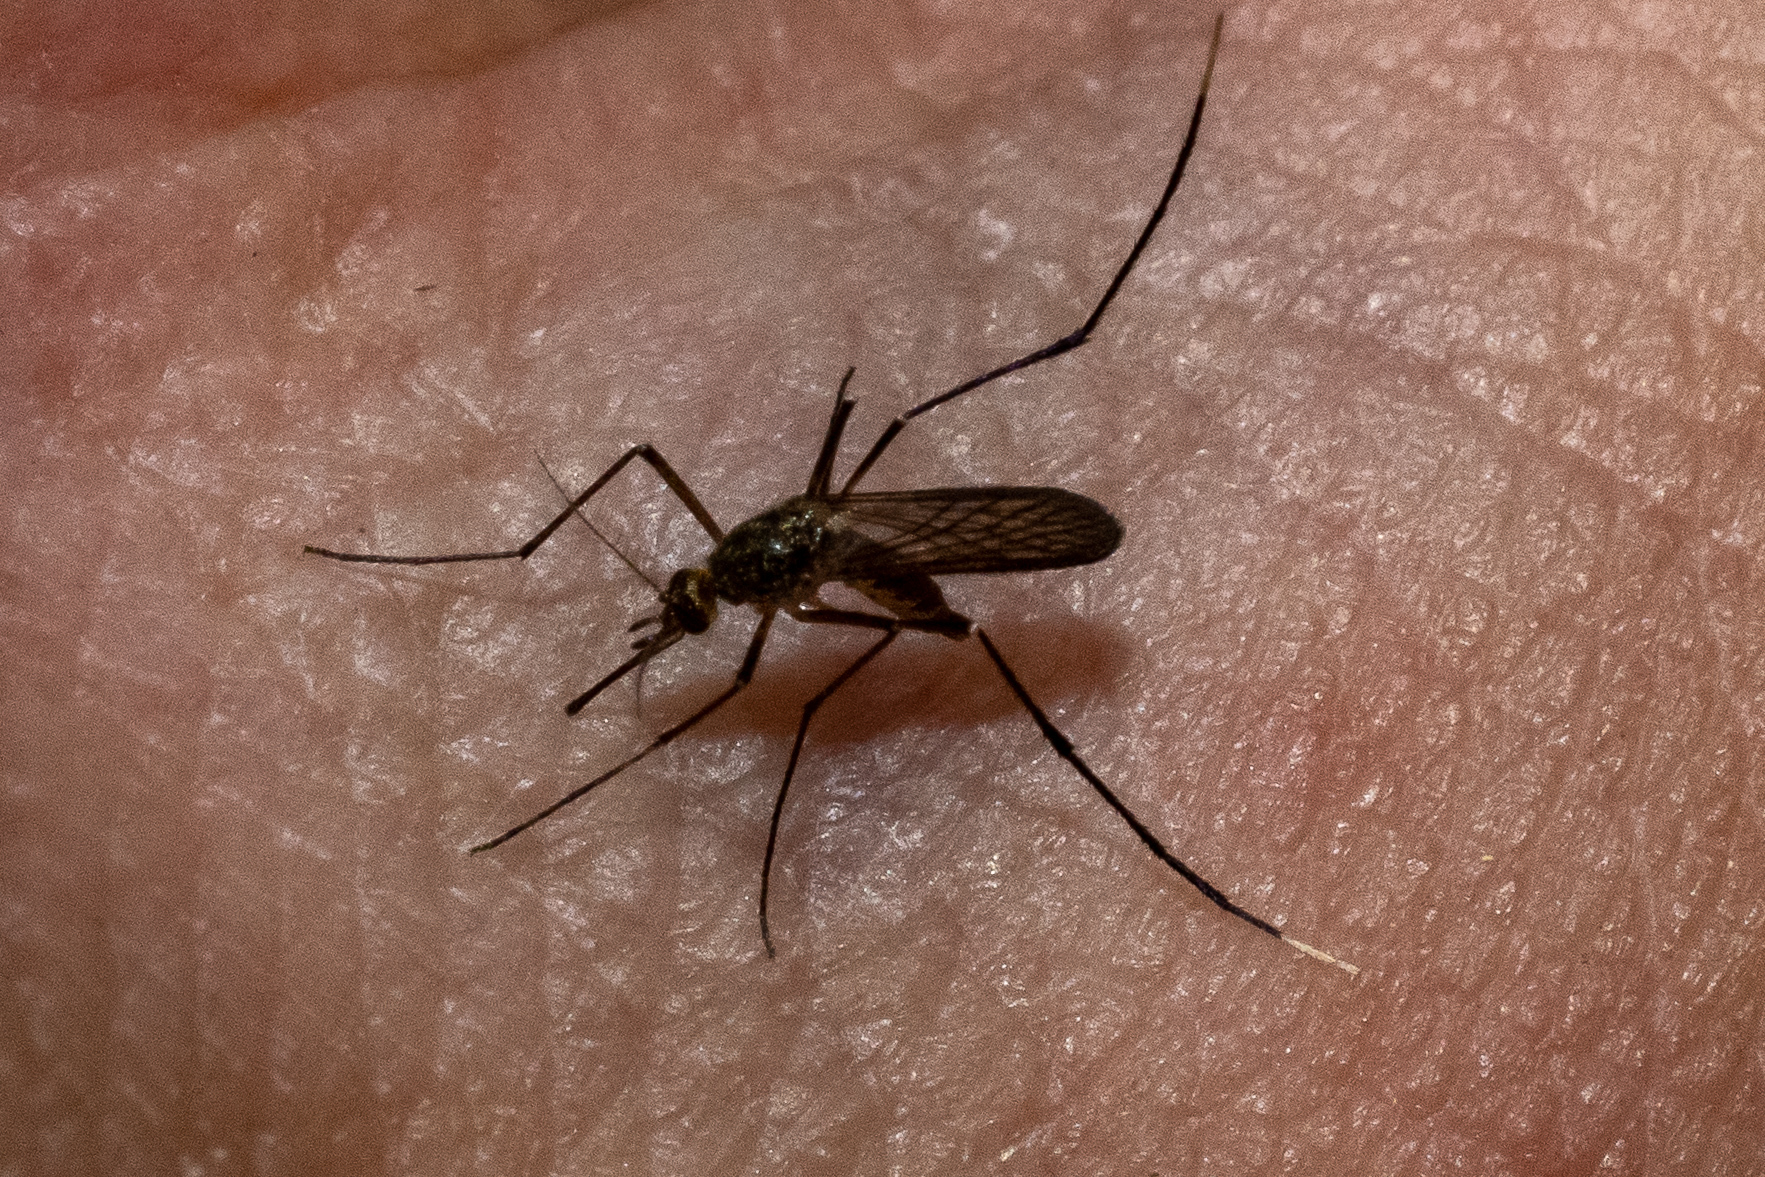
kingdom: Animalia
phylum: Arthropoda
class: Insecta
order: Diptera
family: Culicidae
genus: Psorophora
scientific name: Psorophora ferox
